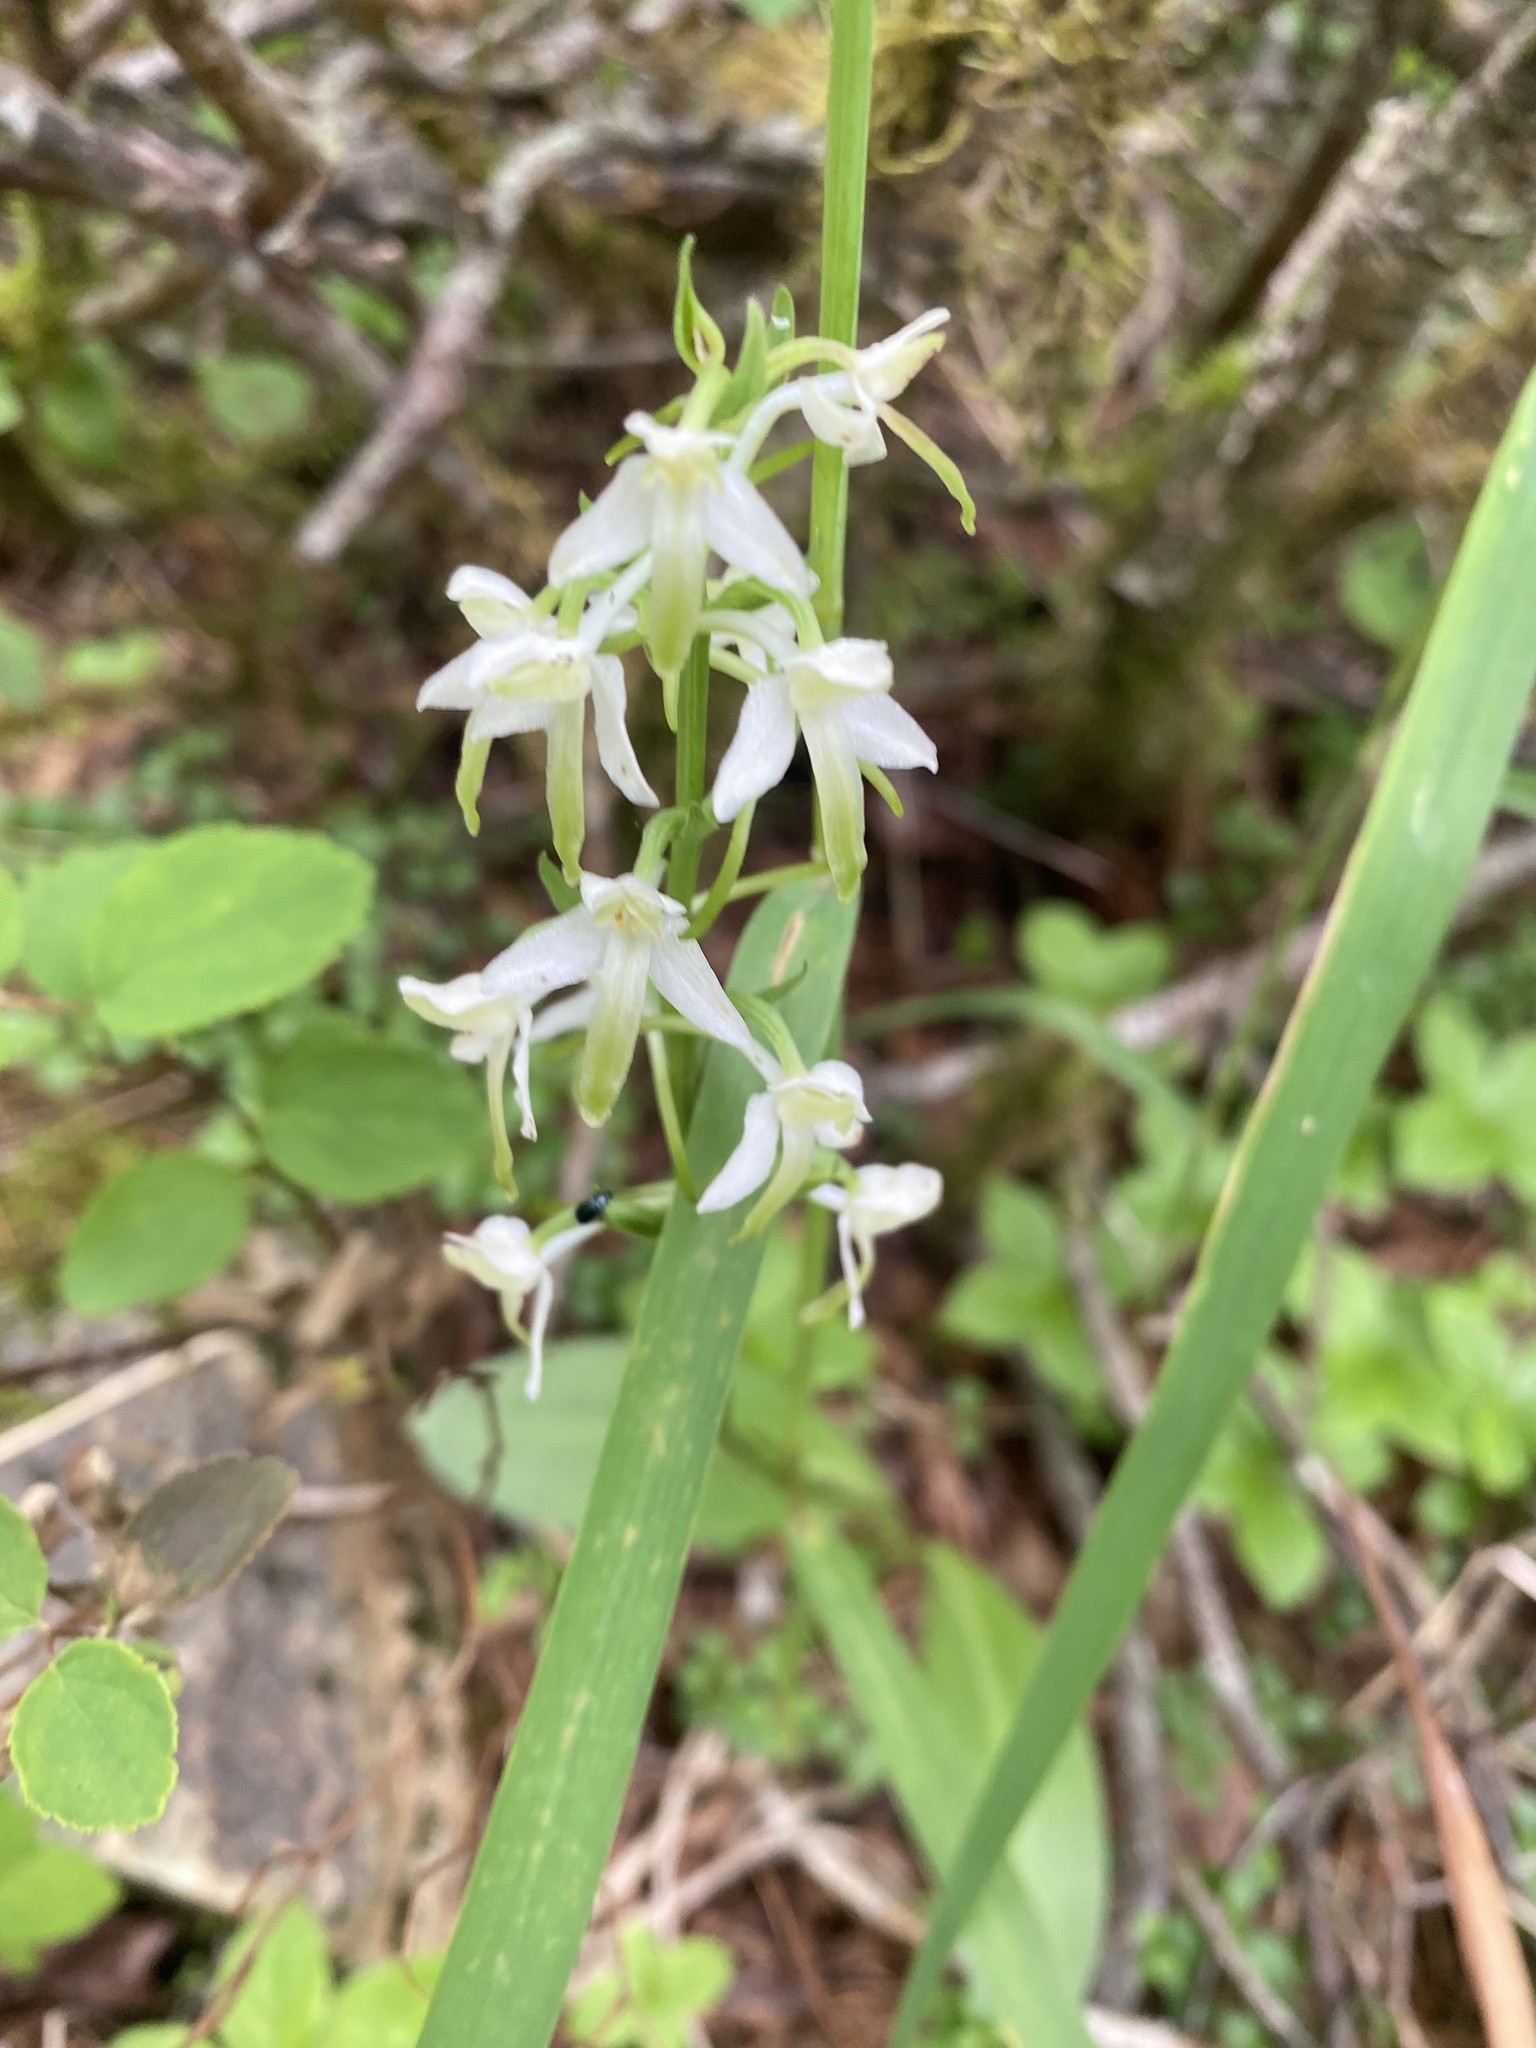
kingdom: Plantae
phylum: Tracheophyta
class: Liliopsida
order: Asparagales
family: Orchidaceae
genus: Platanthera
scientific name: Platanthera metabifolia
